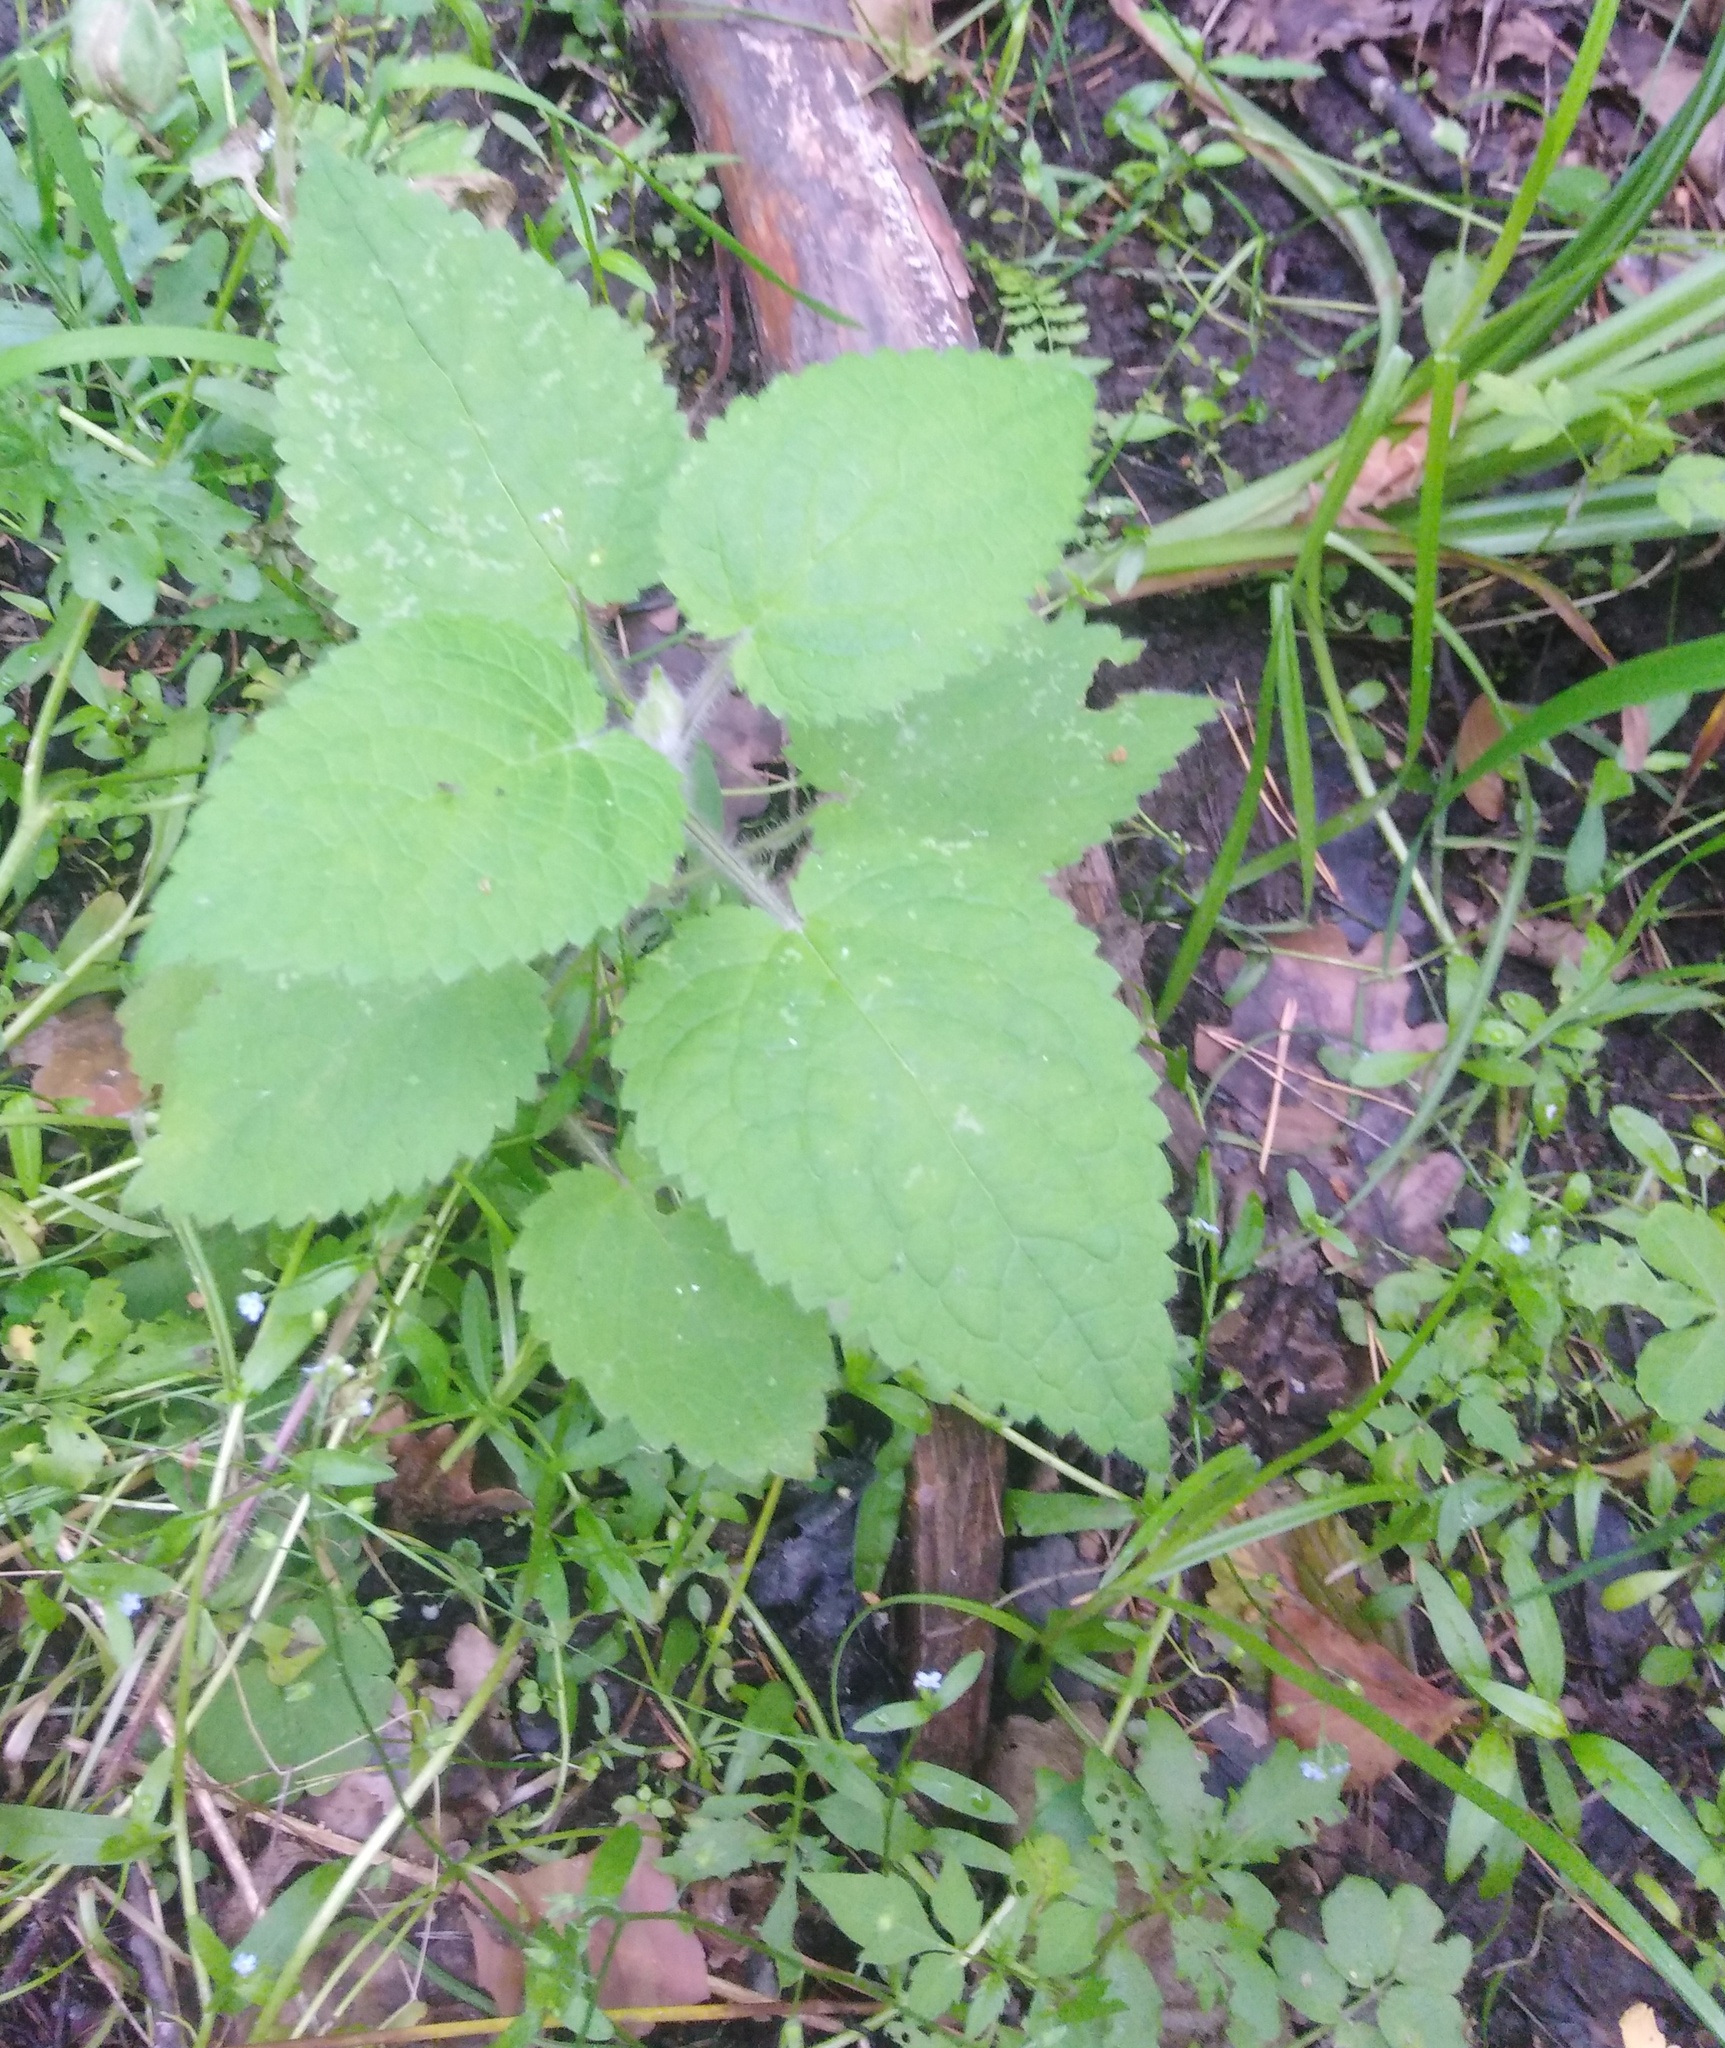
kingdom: Plantae
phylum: Tracheophyta
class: Magnoliopsida
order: Lamiales
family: Lamiaceae
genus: Stachys
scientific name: Stachys sylvatica
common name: Hedge woundwort
